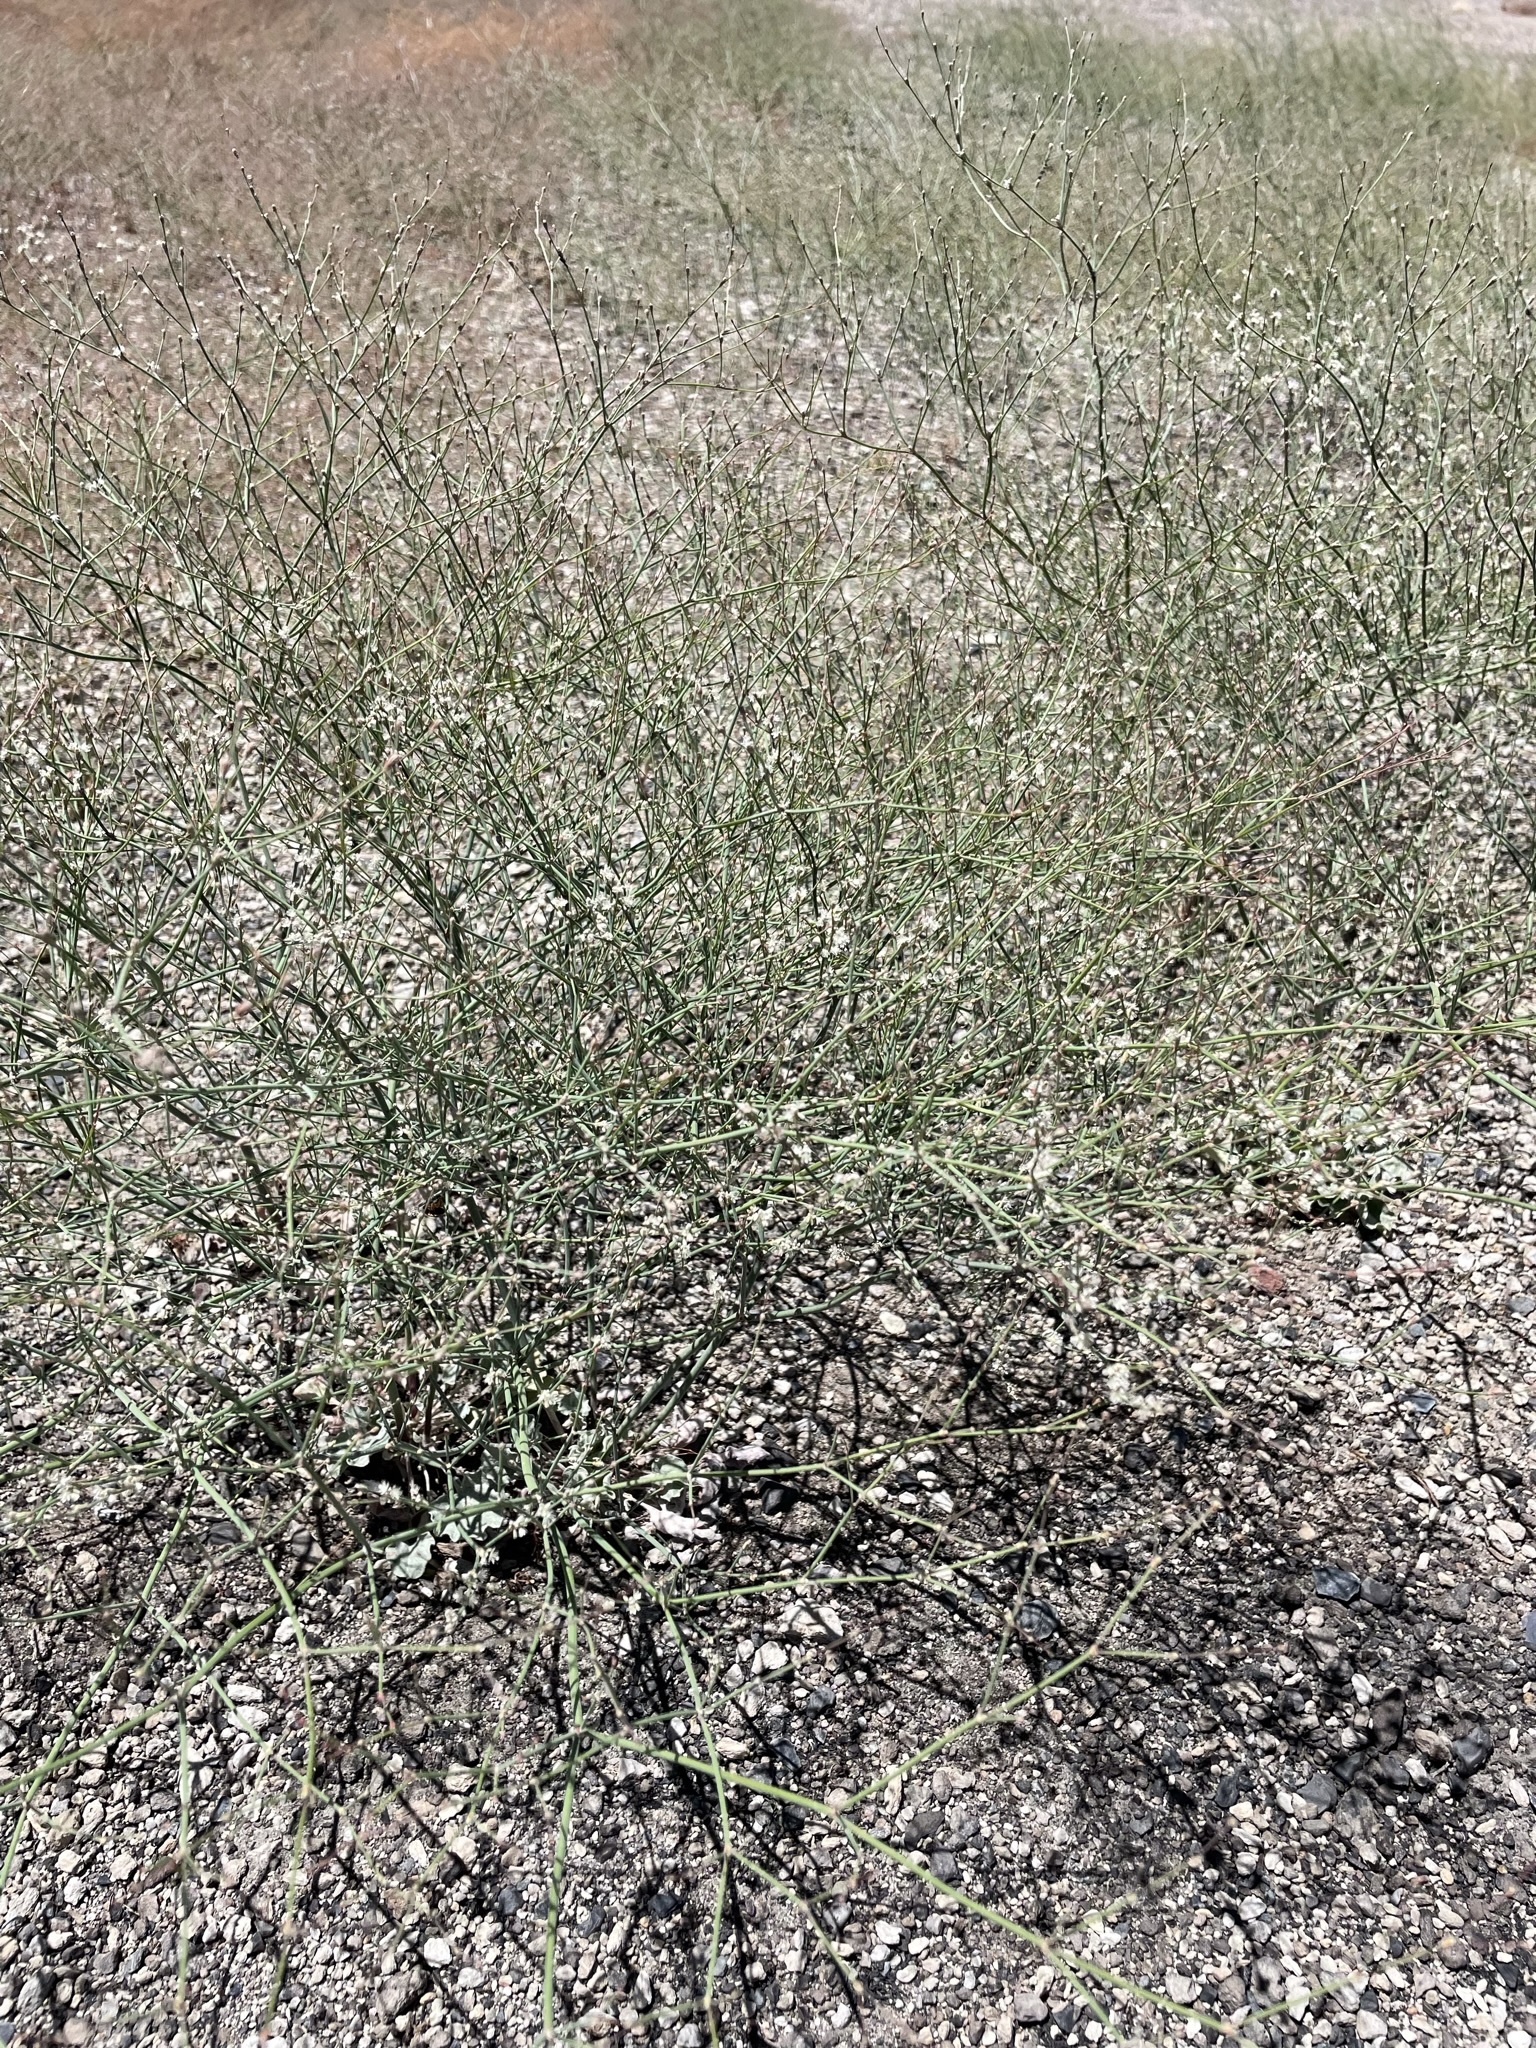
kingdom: Plantae
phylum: Tracheophyta
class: Magnoliopsida
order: Caryophyllales
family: Polygonaceae
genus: Eriogonum
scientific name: Eriogonum baileyi
